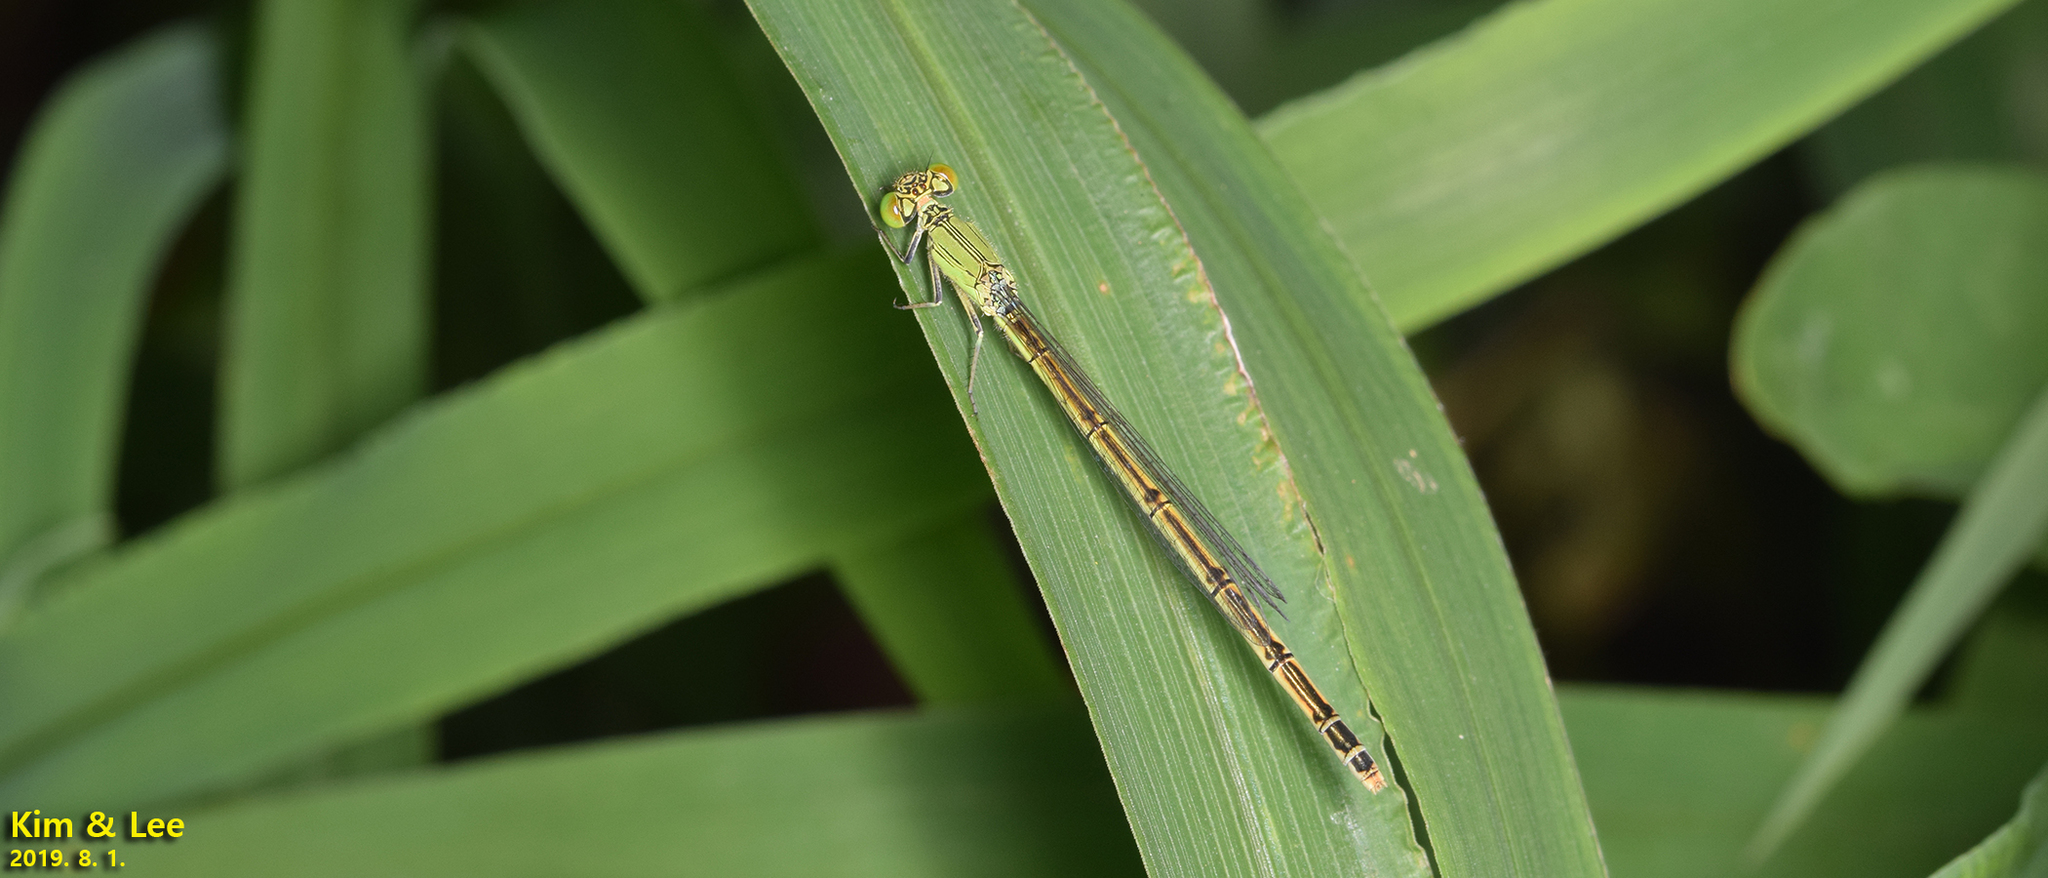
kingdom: Animalia
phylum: Arthropoda
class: Insecta
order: Odonata
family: Coenagrionidae
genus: Paracercion
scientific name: Paracercion hieroglyphicum
